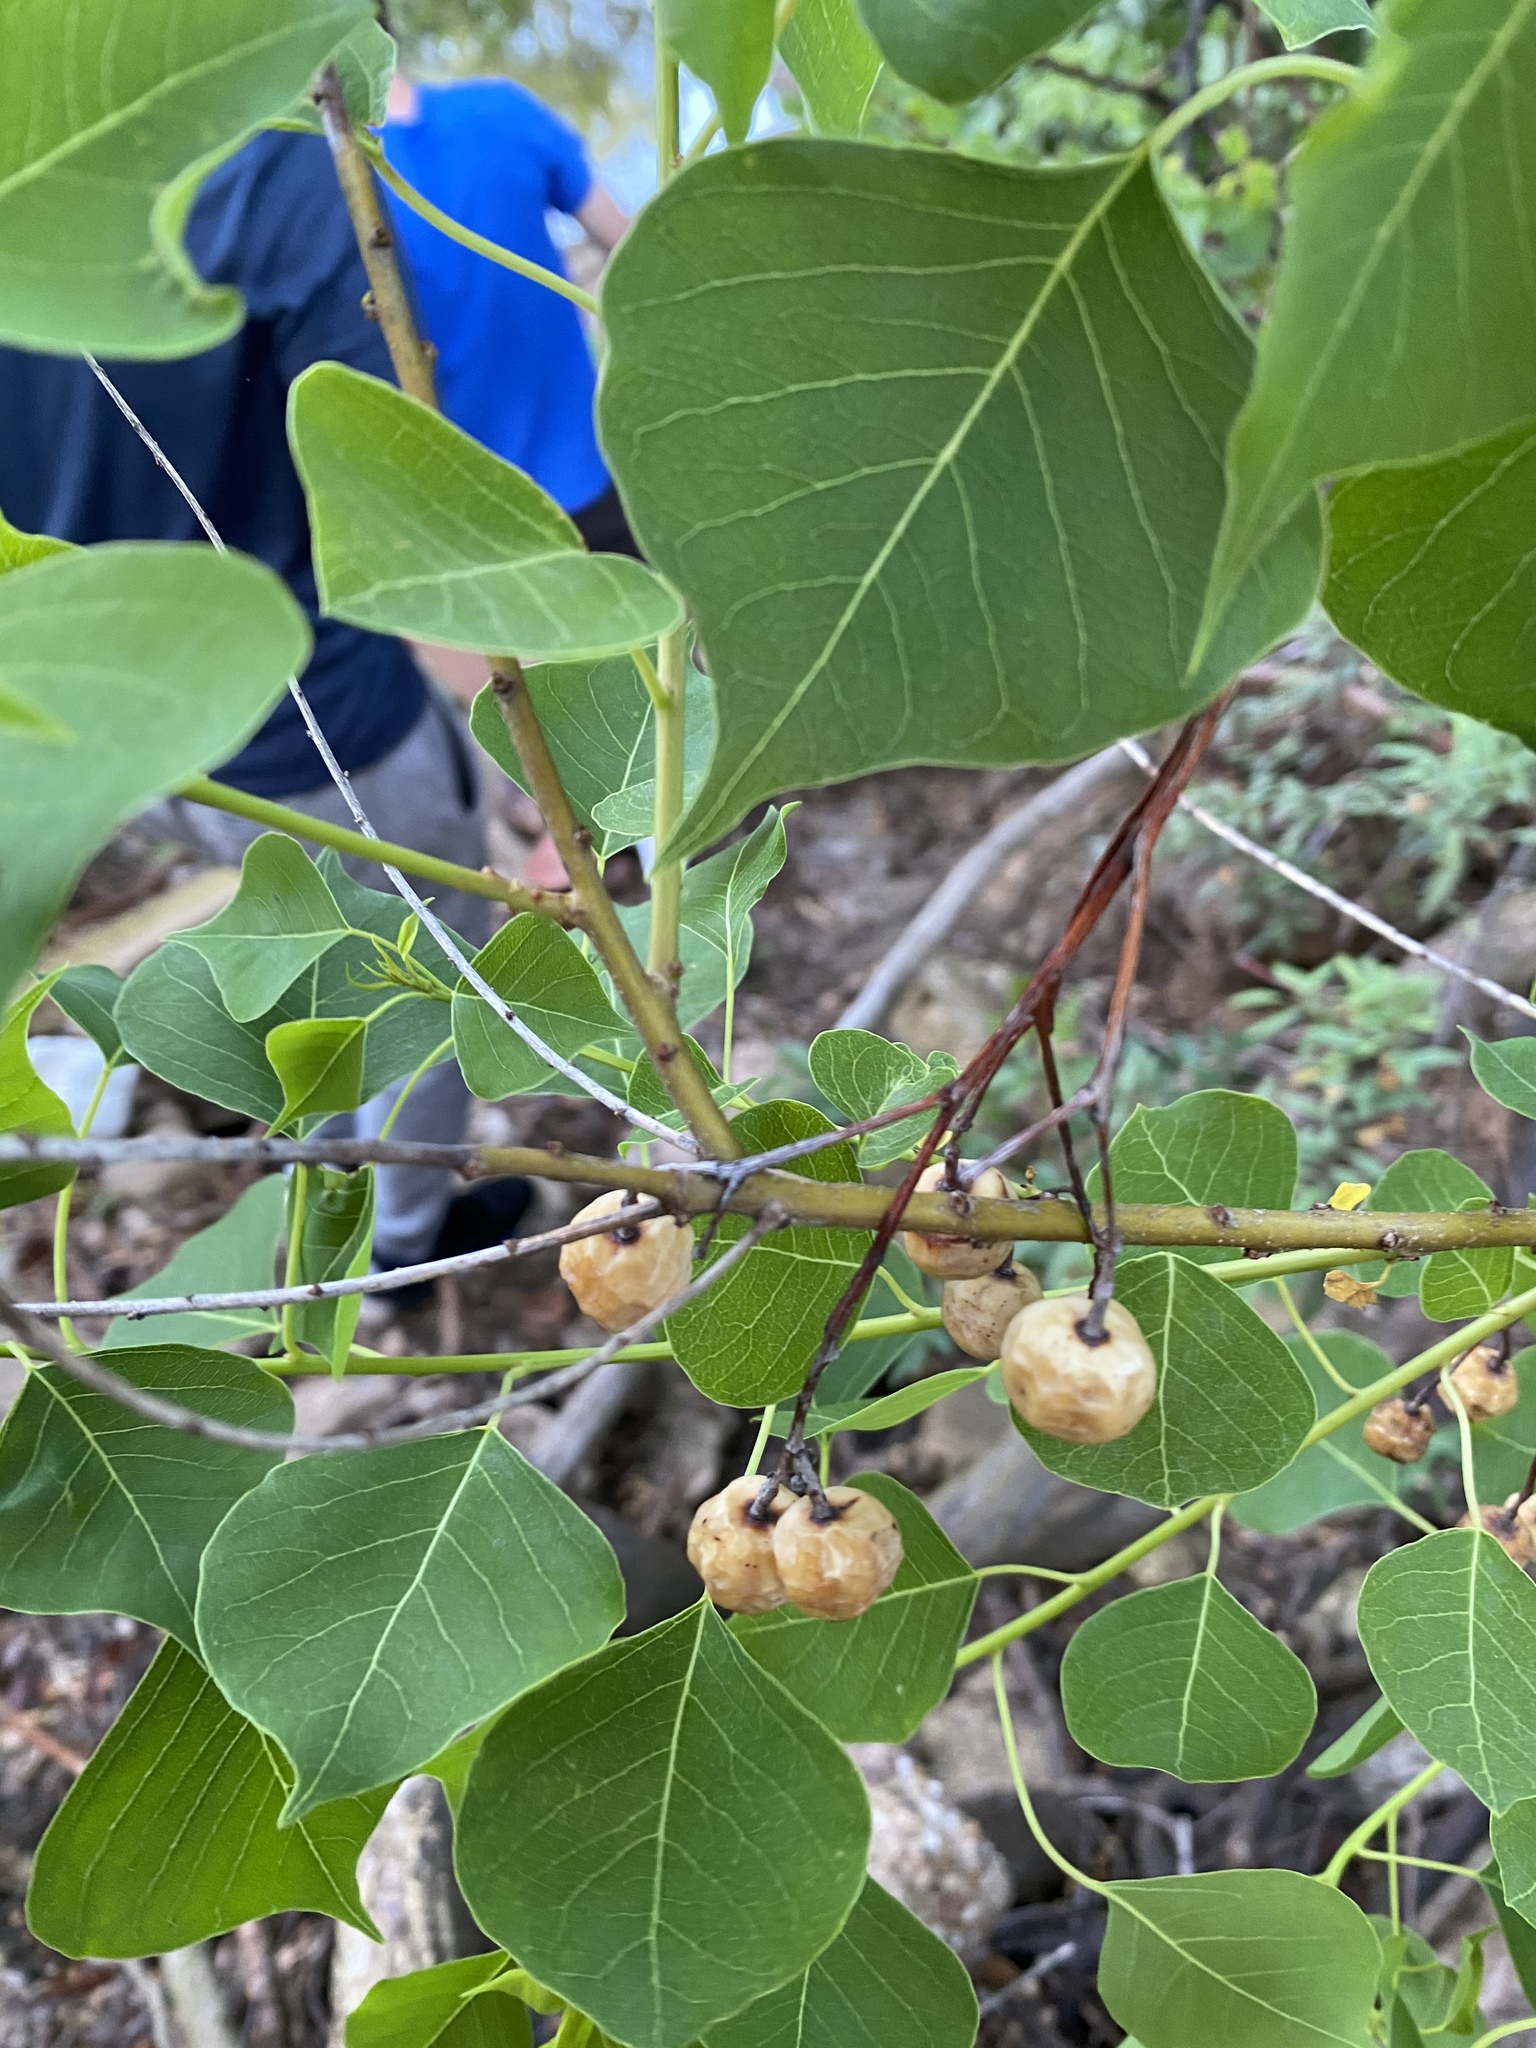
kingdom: Plantae
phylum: Tracheophyta
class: Magnoliopsida
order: Malpighiales
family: Euphorbiaceae
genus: Triadica
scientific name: Triadica sebifera
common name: Chinese tallow
